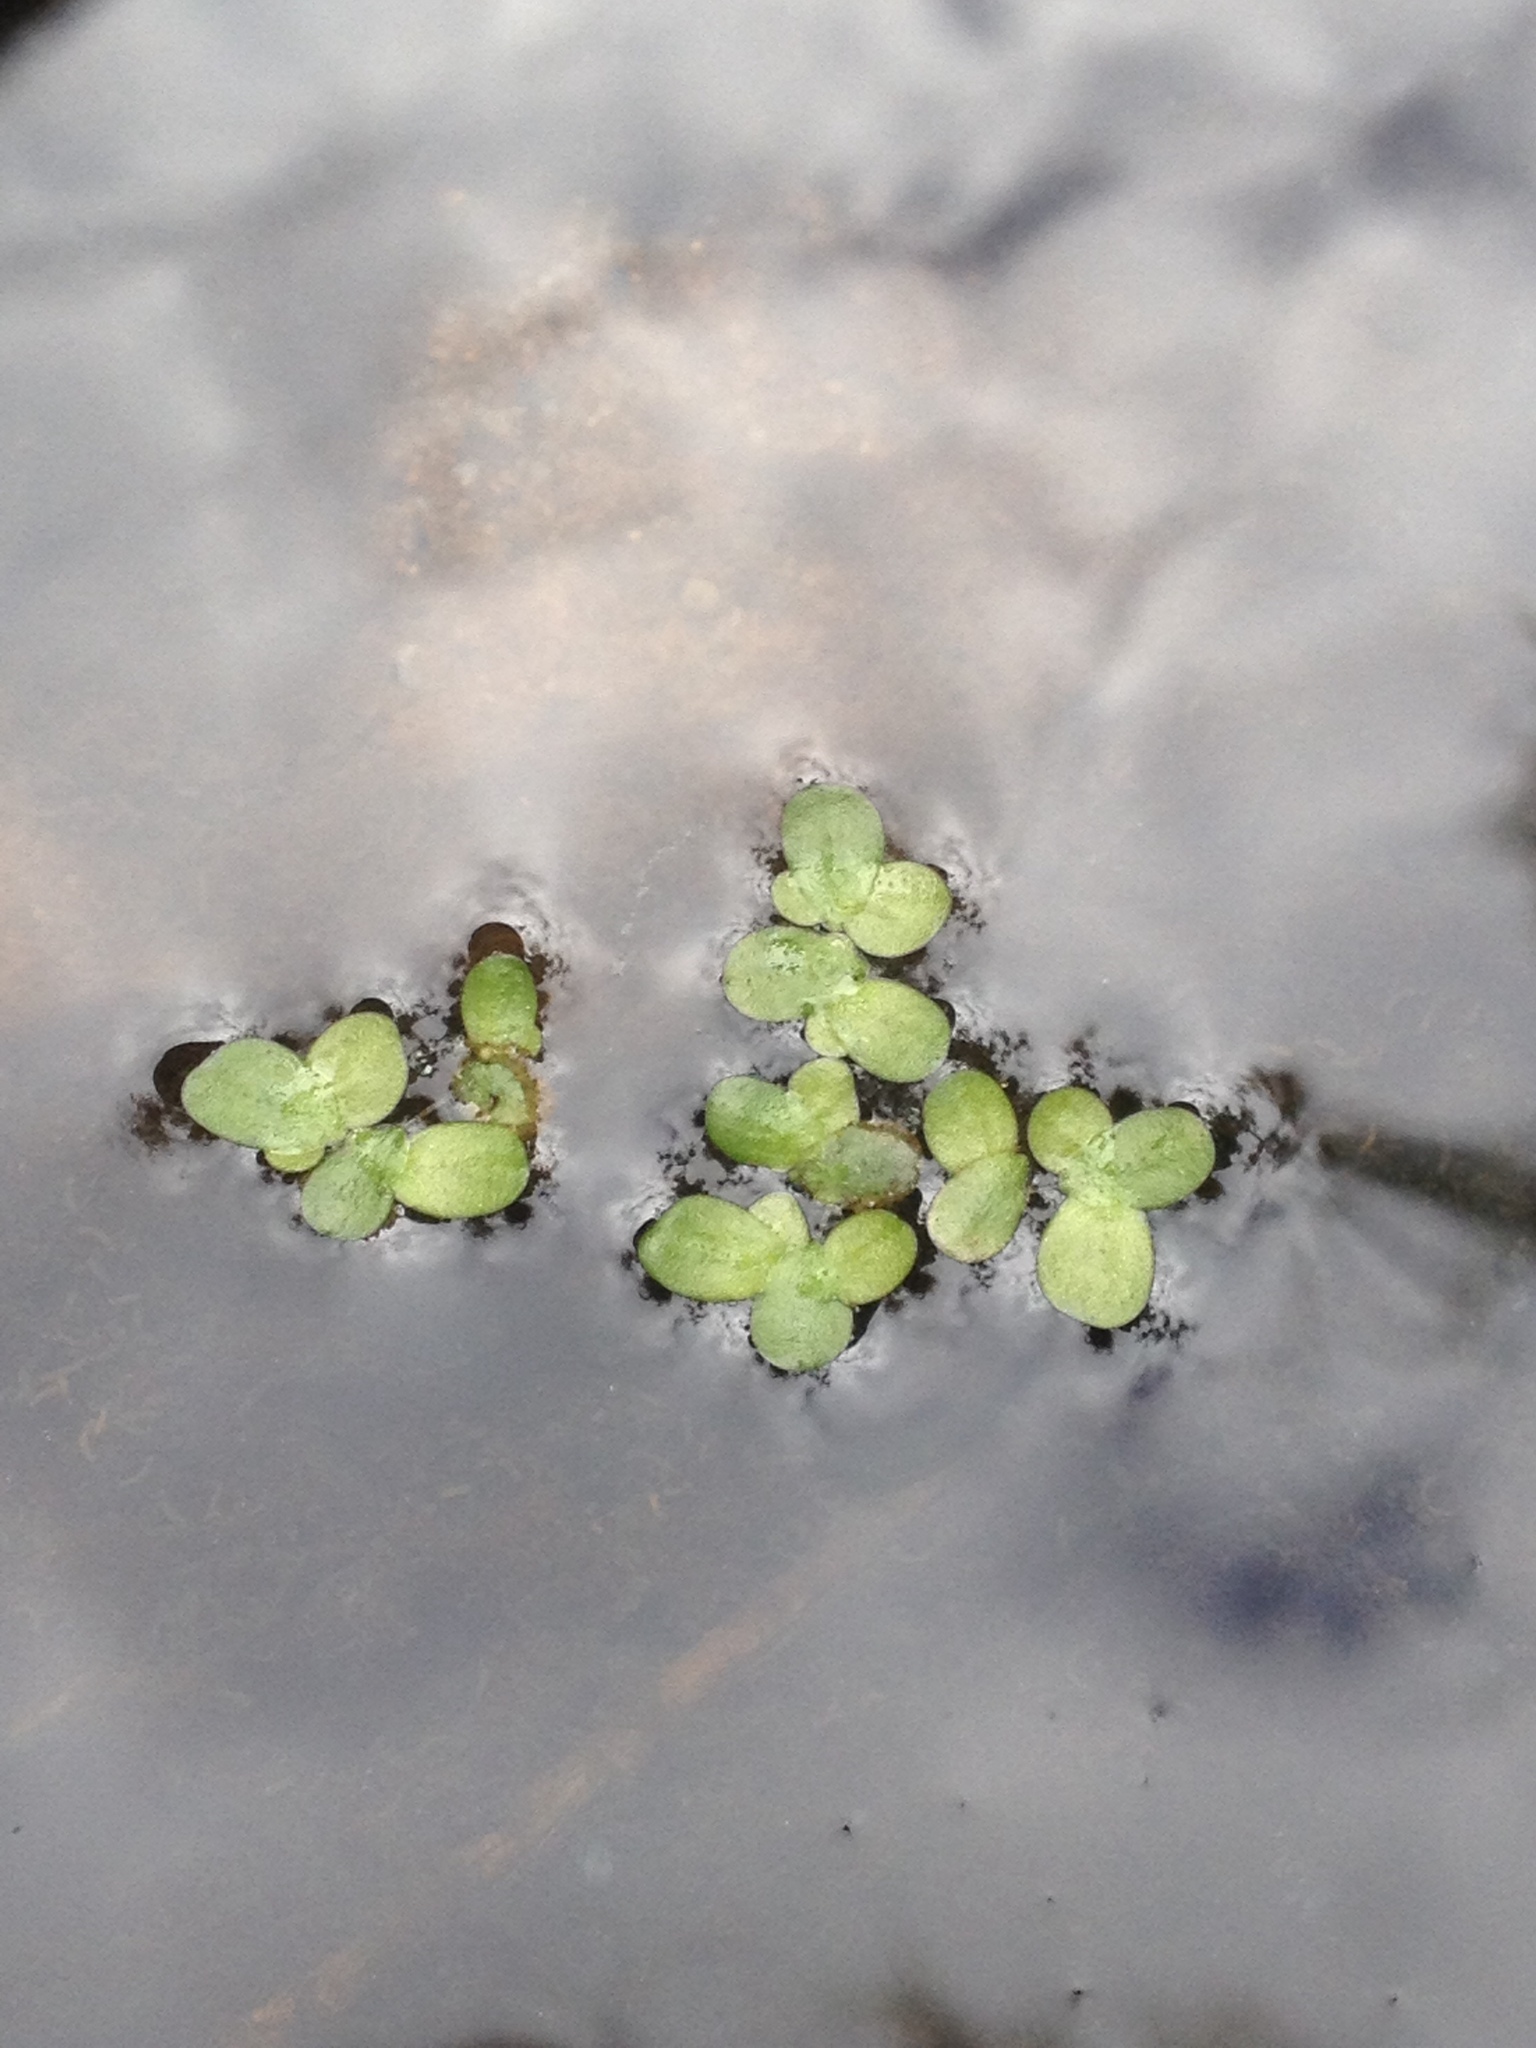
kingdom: Plantae
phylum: Tracheophyta
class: Liliopsida
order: Alismatales
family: Araceae
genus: Lemna
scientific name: Lemna minor
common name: Common duckweed
